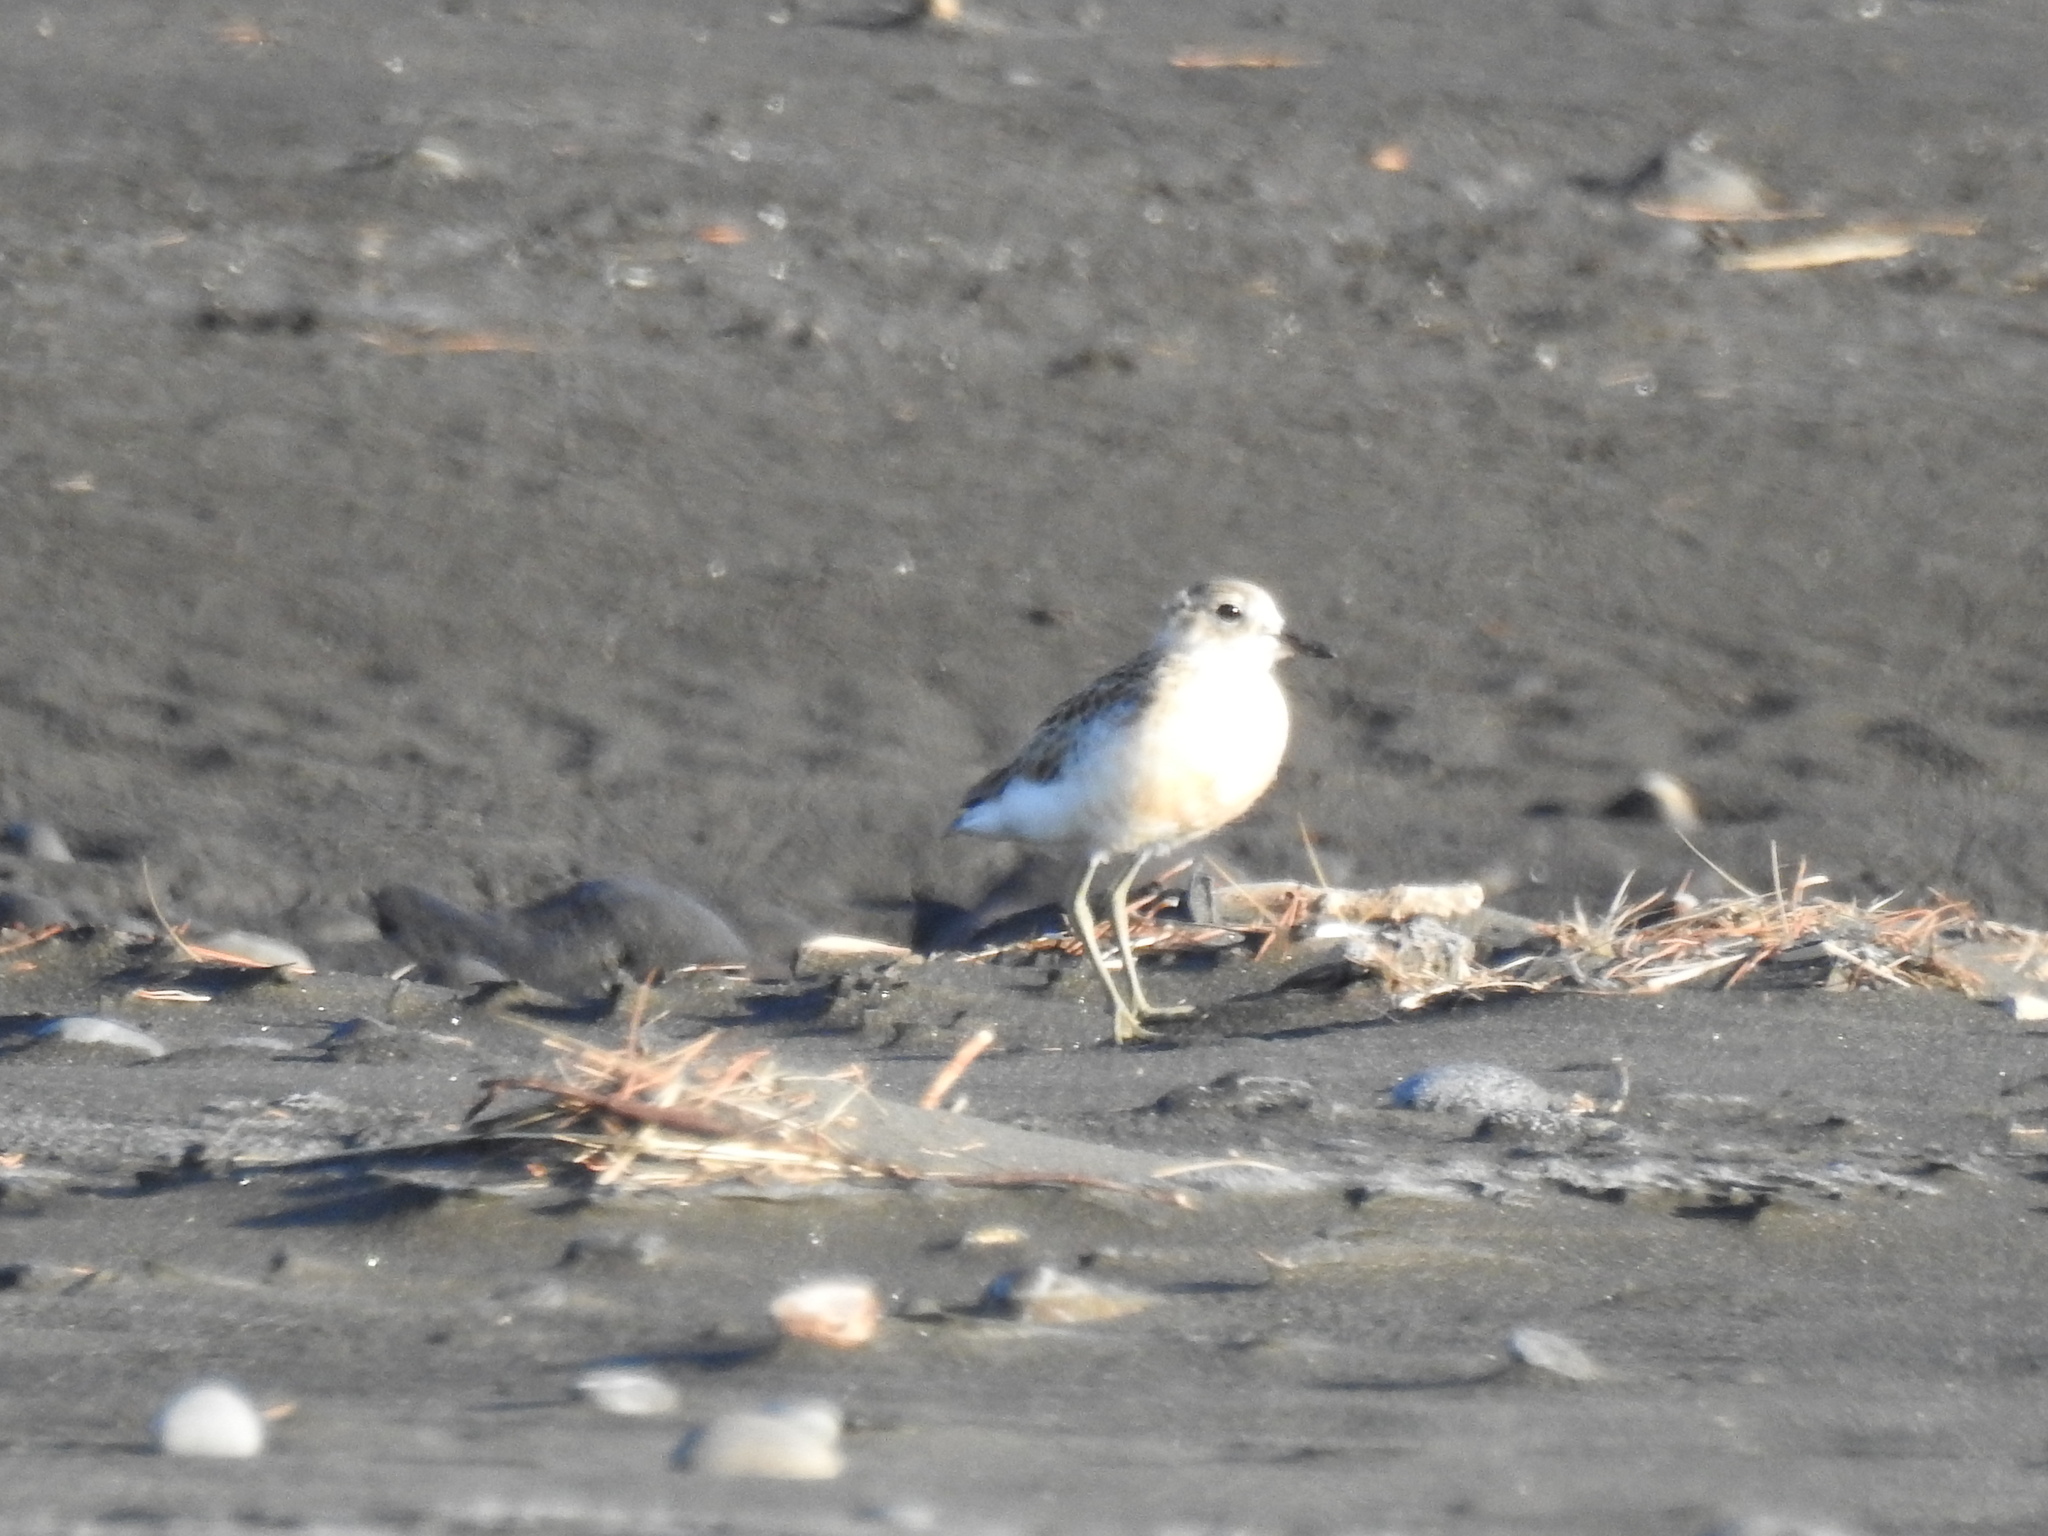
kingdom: Animalia
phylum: Chordata
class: Aves
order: Charadriiformes
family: Charadriidae
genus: Anarhynchus
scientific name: Anarhynchus
